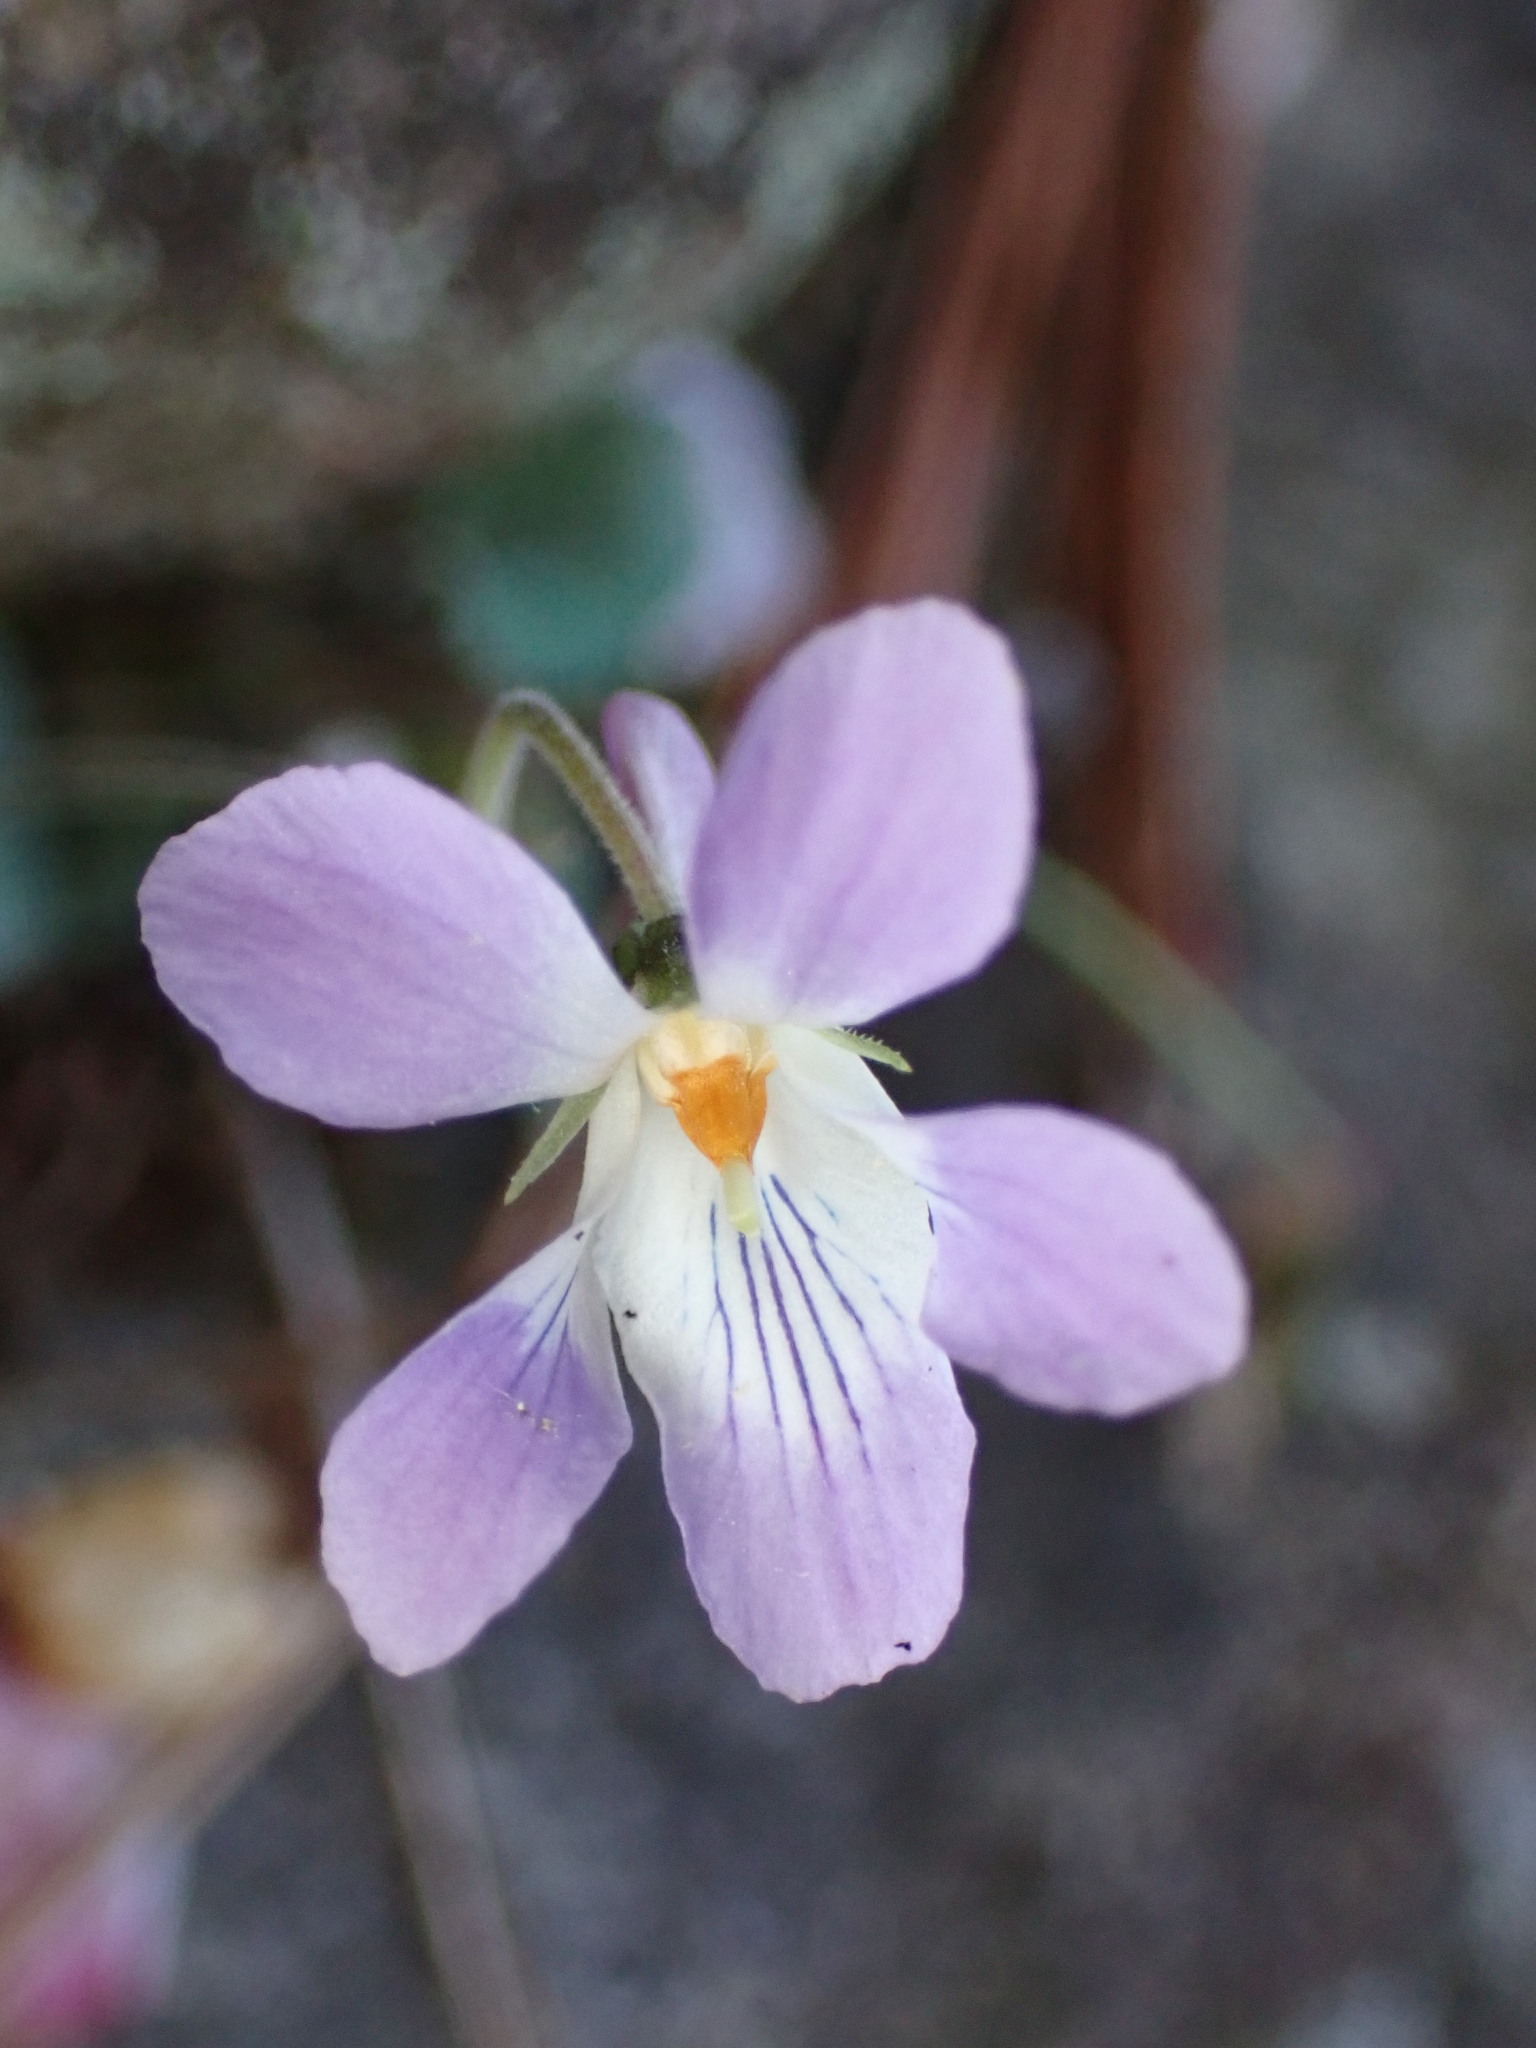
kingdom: Plantae
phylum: Tracheophyta
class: Magnoliopsida
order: Malpighiales
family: Violaceae
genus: Viola
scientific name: Viola ovatooblonga
